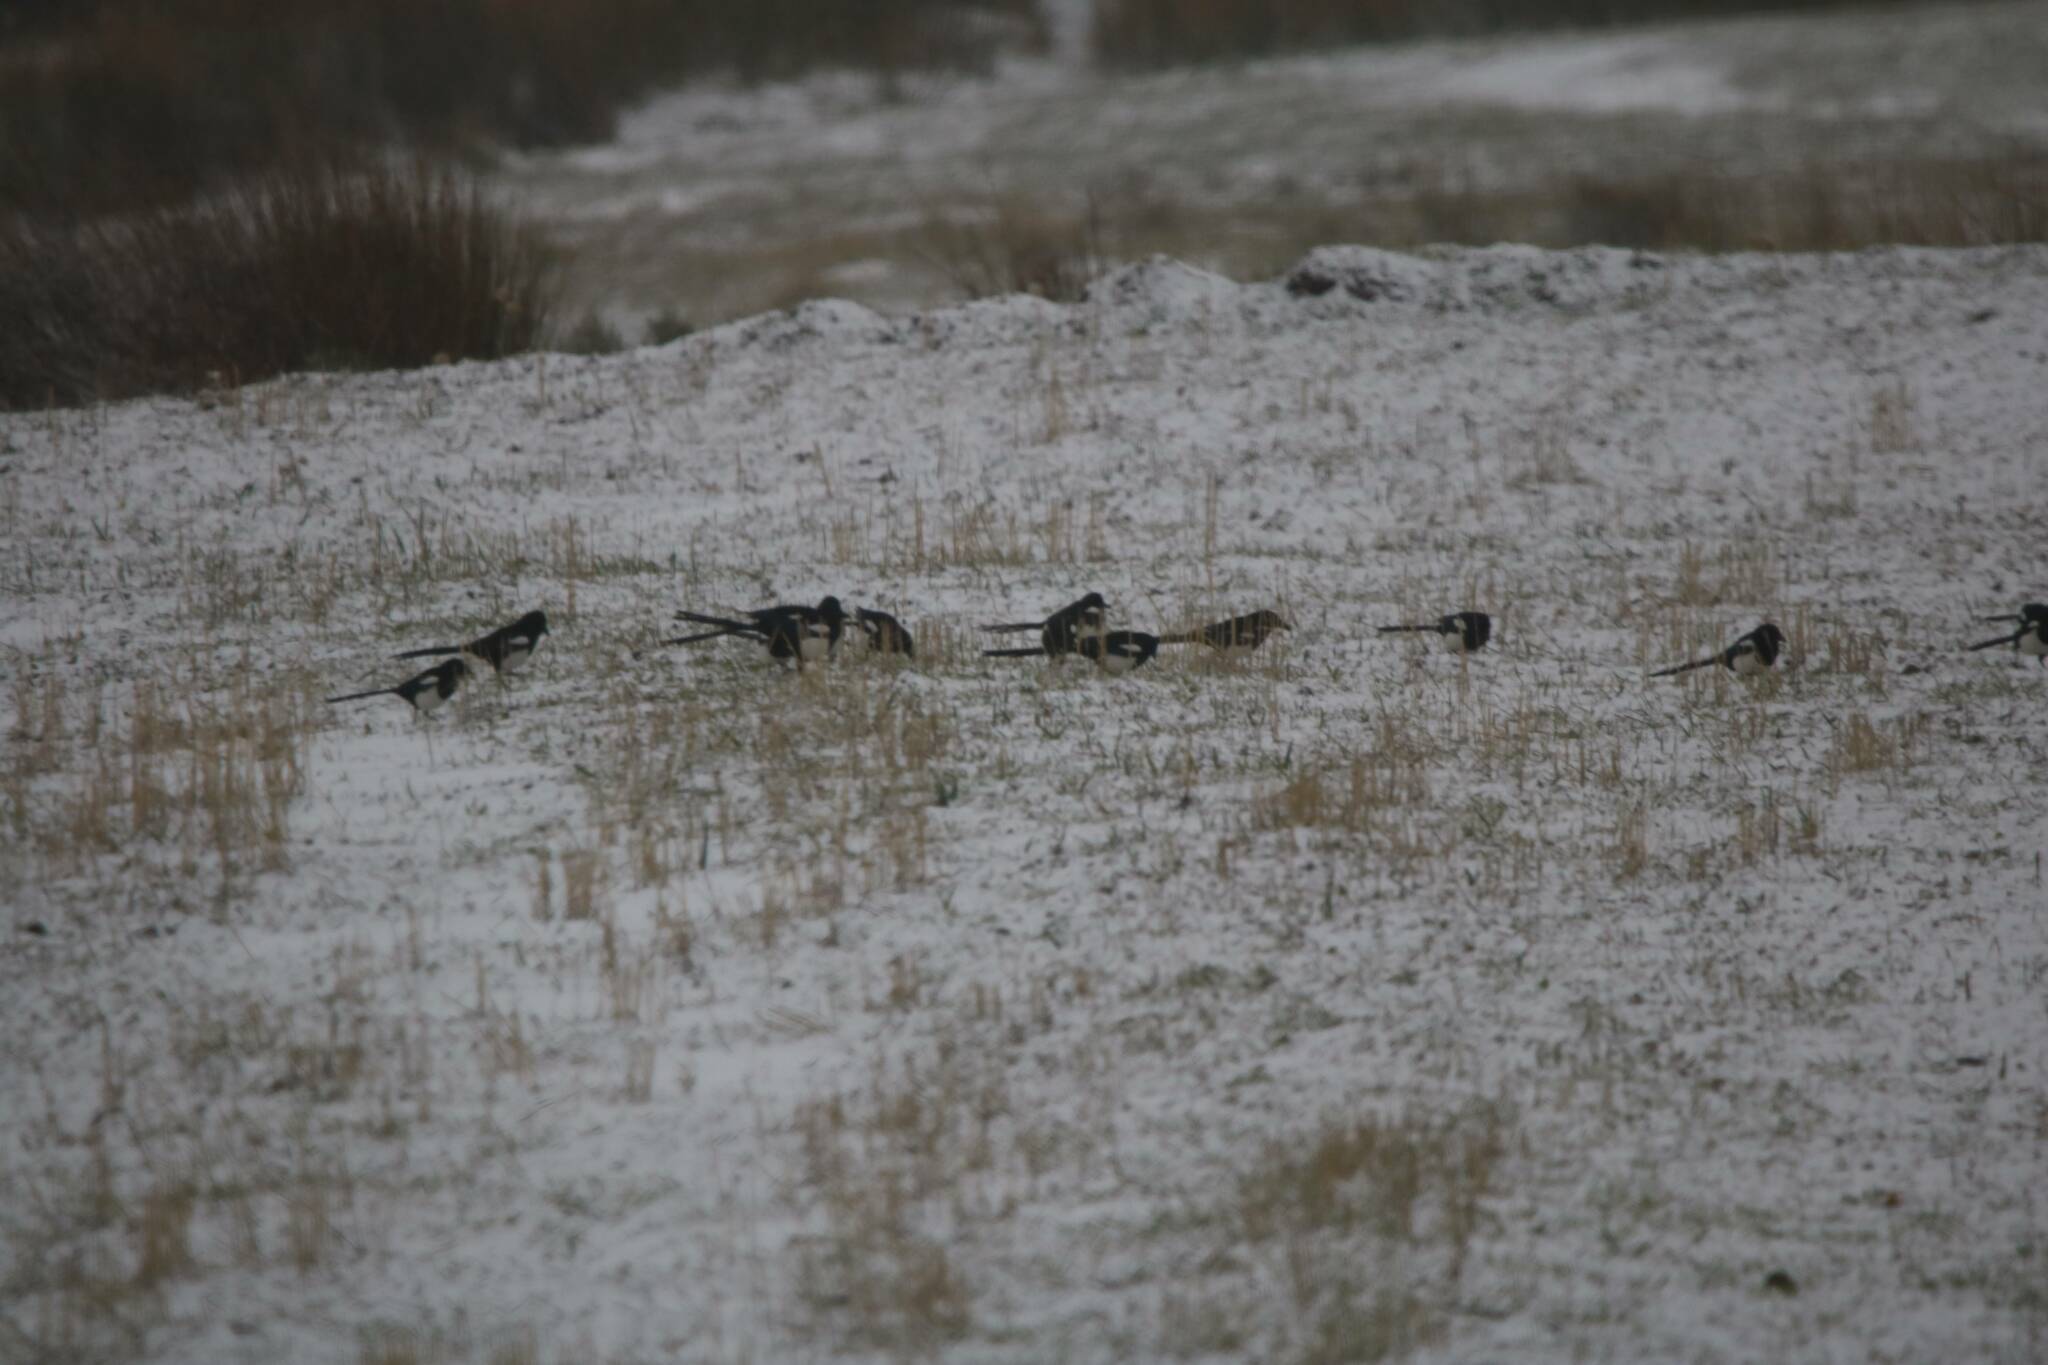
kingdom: Animalia
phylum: Chordata
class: Aves
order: Passeriformes
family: Corvidae
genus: Pica
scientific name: Pica mauritanica
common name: Maghreb magpie
